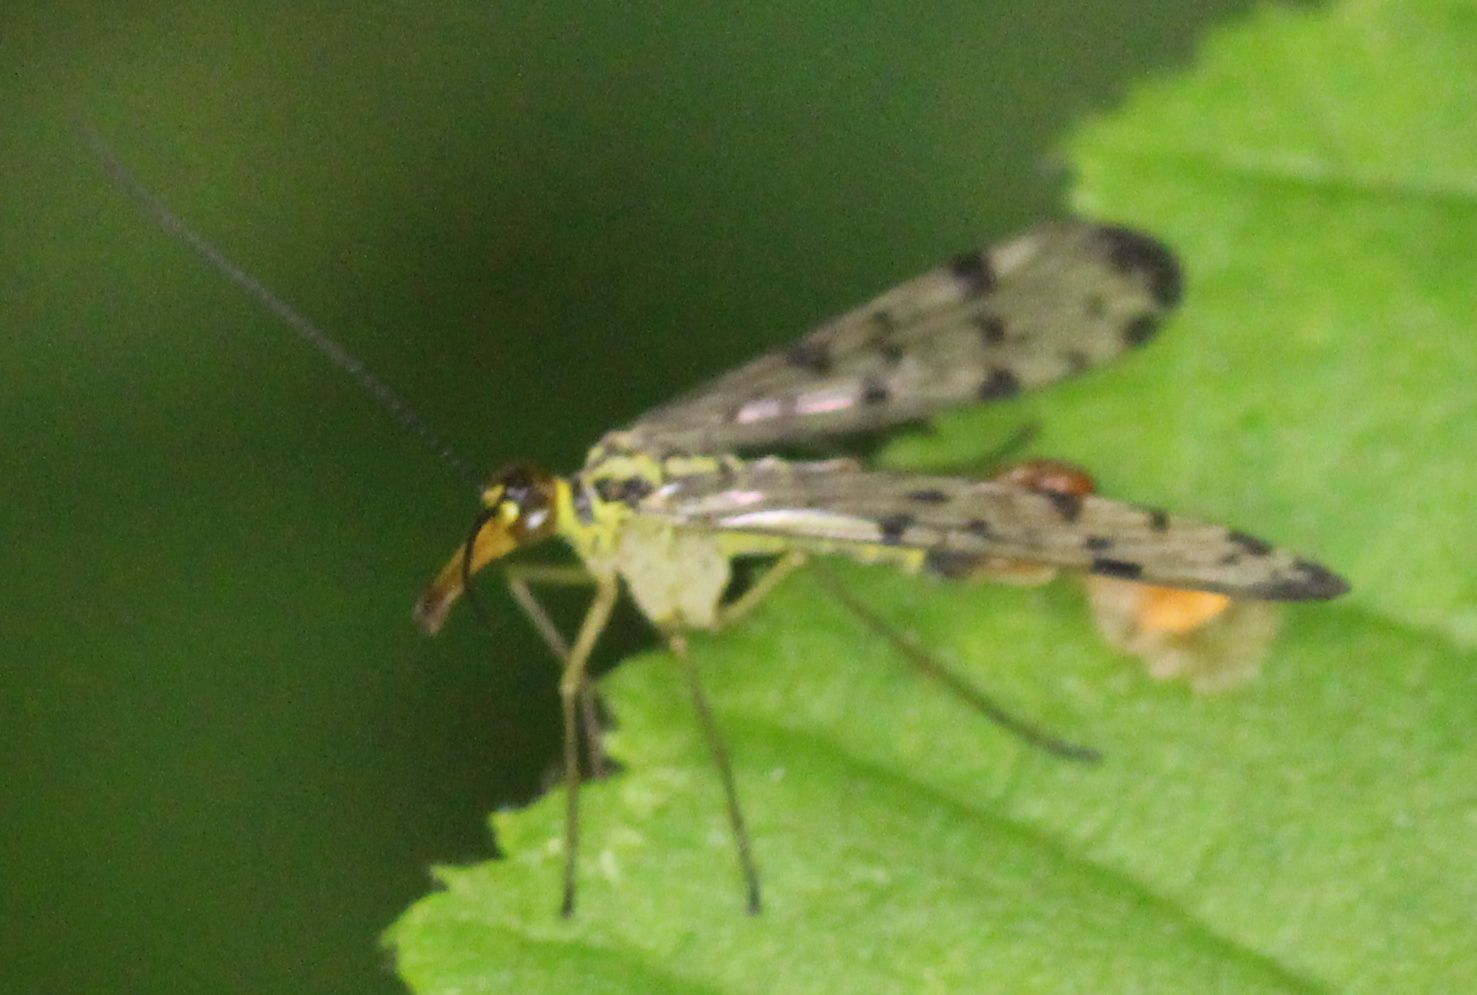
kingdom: Animalia
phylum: Arthropoda
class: Insecta
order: Mecoptera
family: Panorpidae
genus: Panorpa
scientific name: Panorpa germanica
